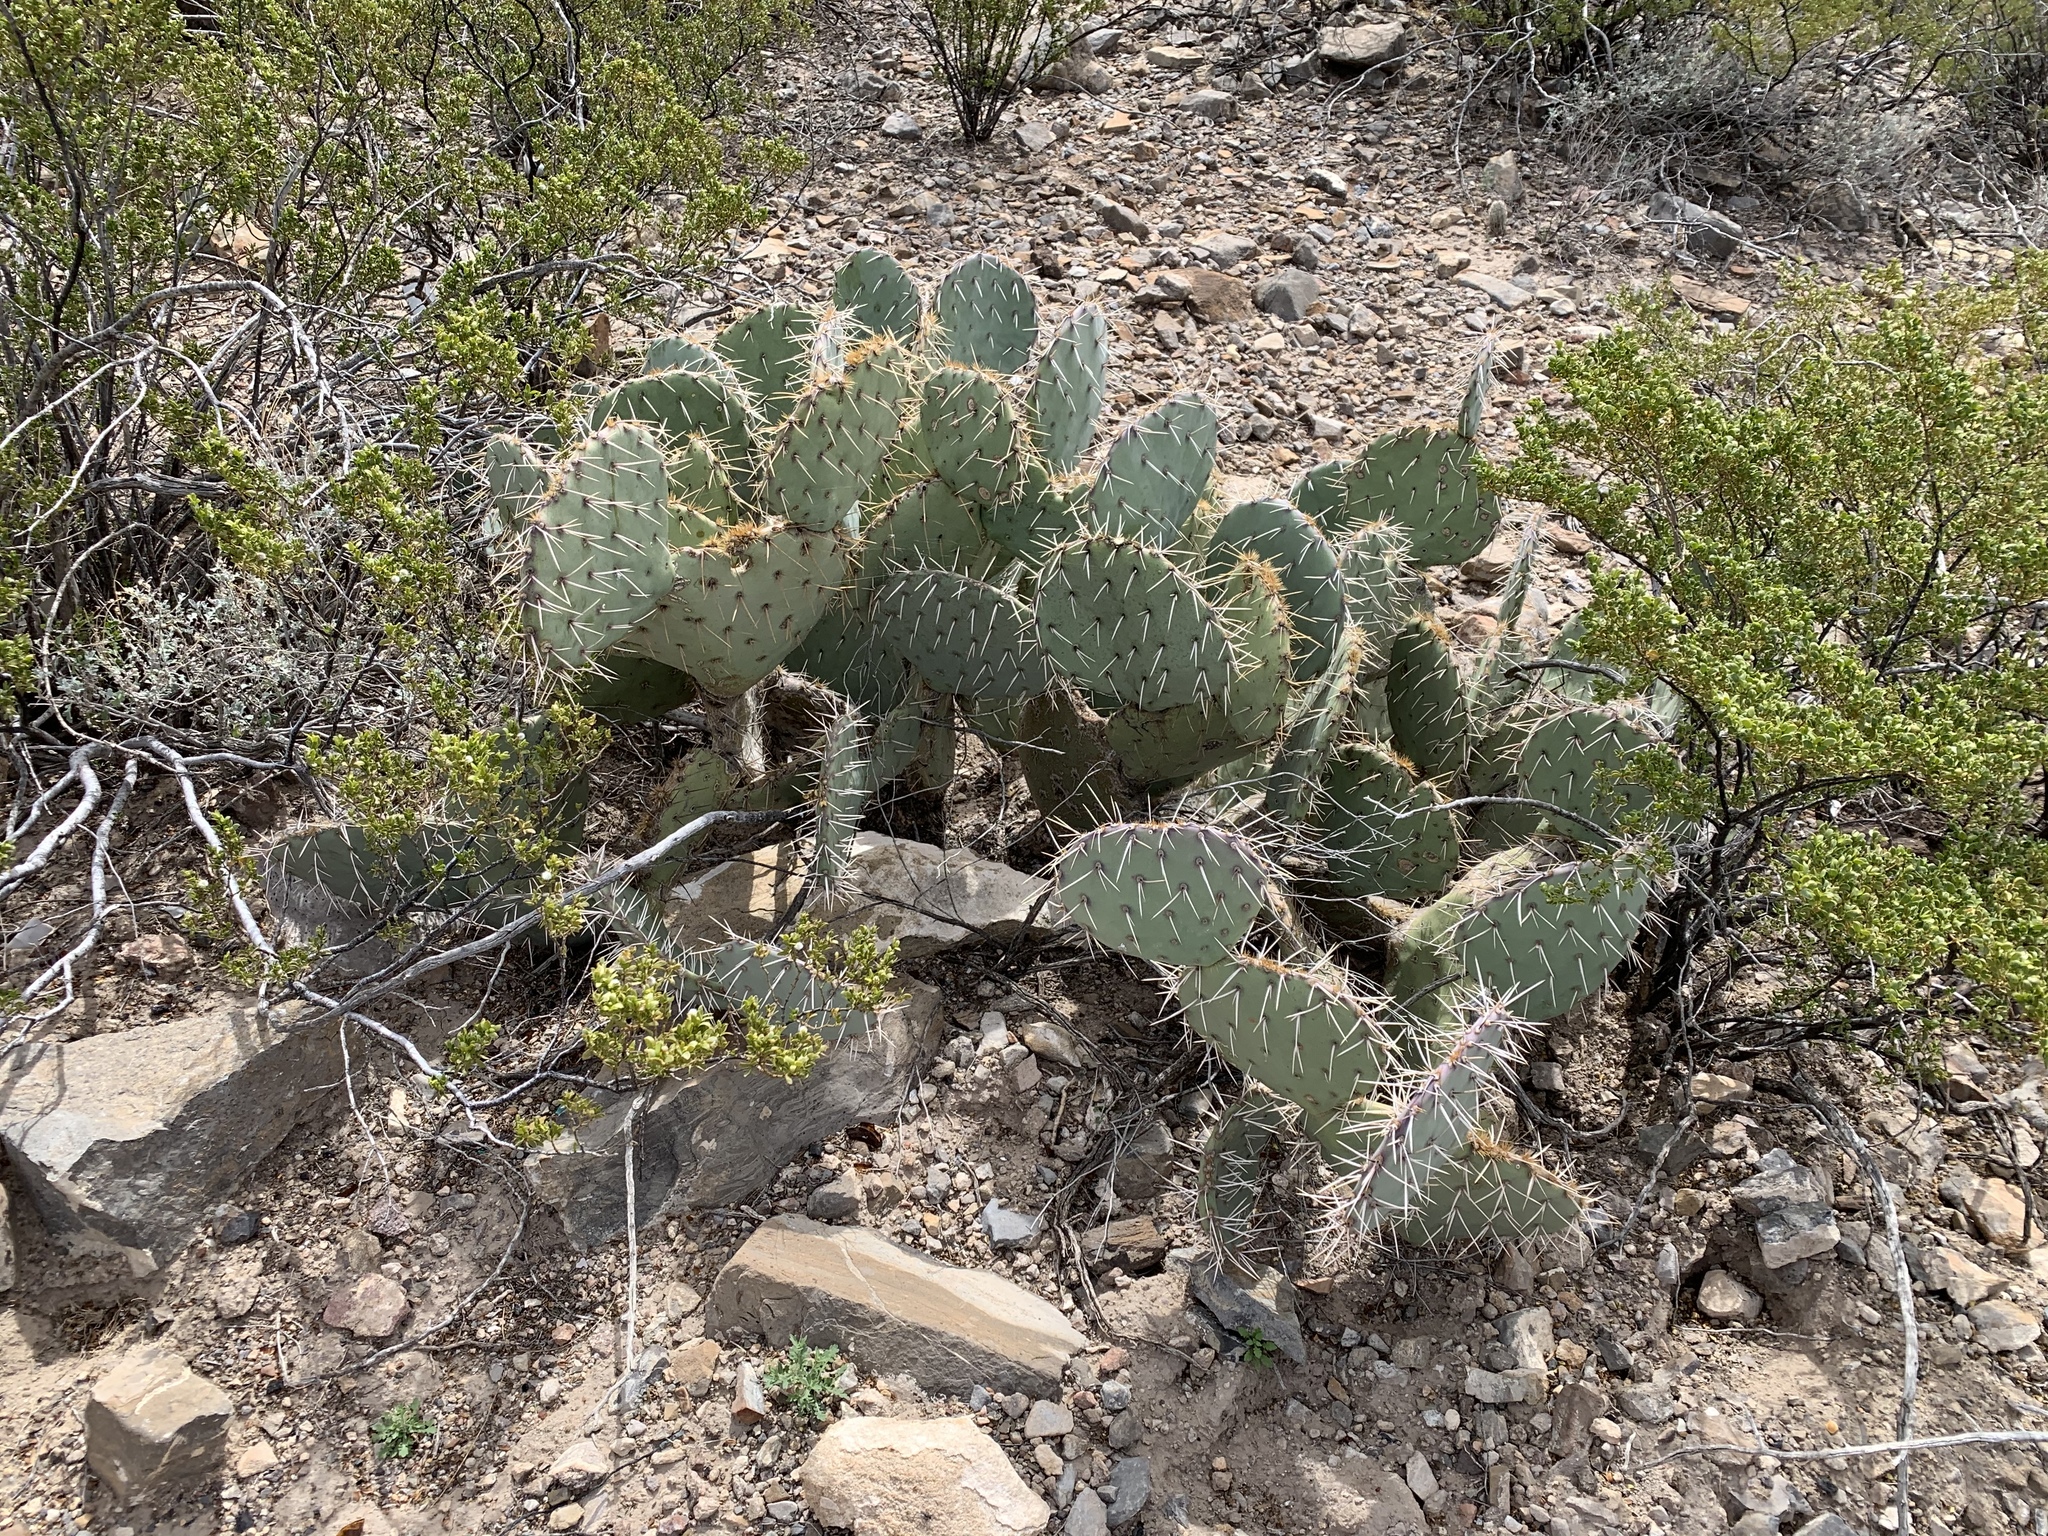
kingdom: Plantae
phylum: Tracheophyta
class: Magnoliopsida
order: Caryophyllales
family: Cactaceae
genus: Opuntia
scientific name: Opuntia engelmannii
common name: Cactus-apple
